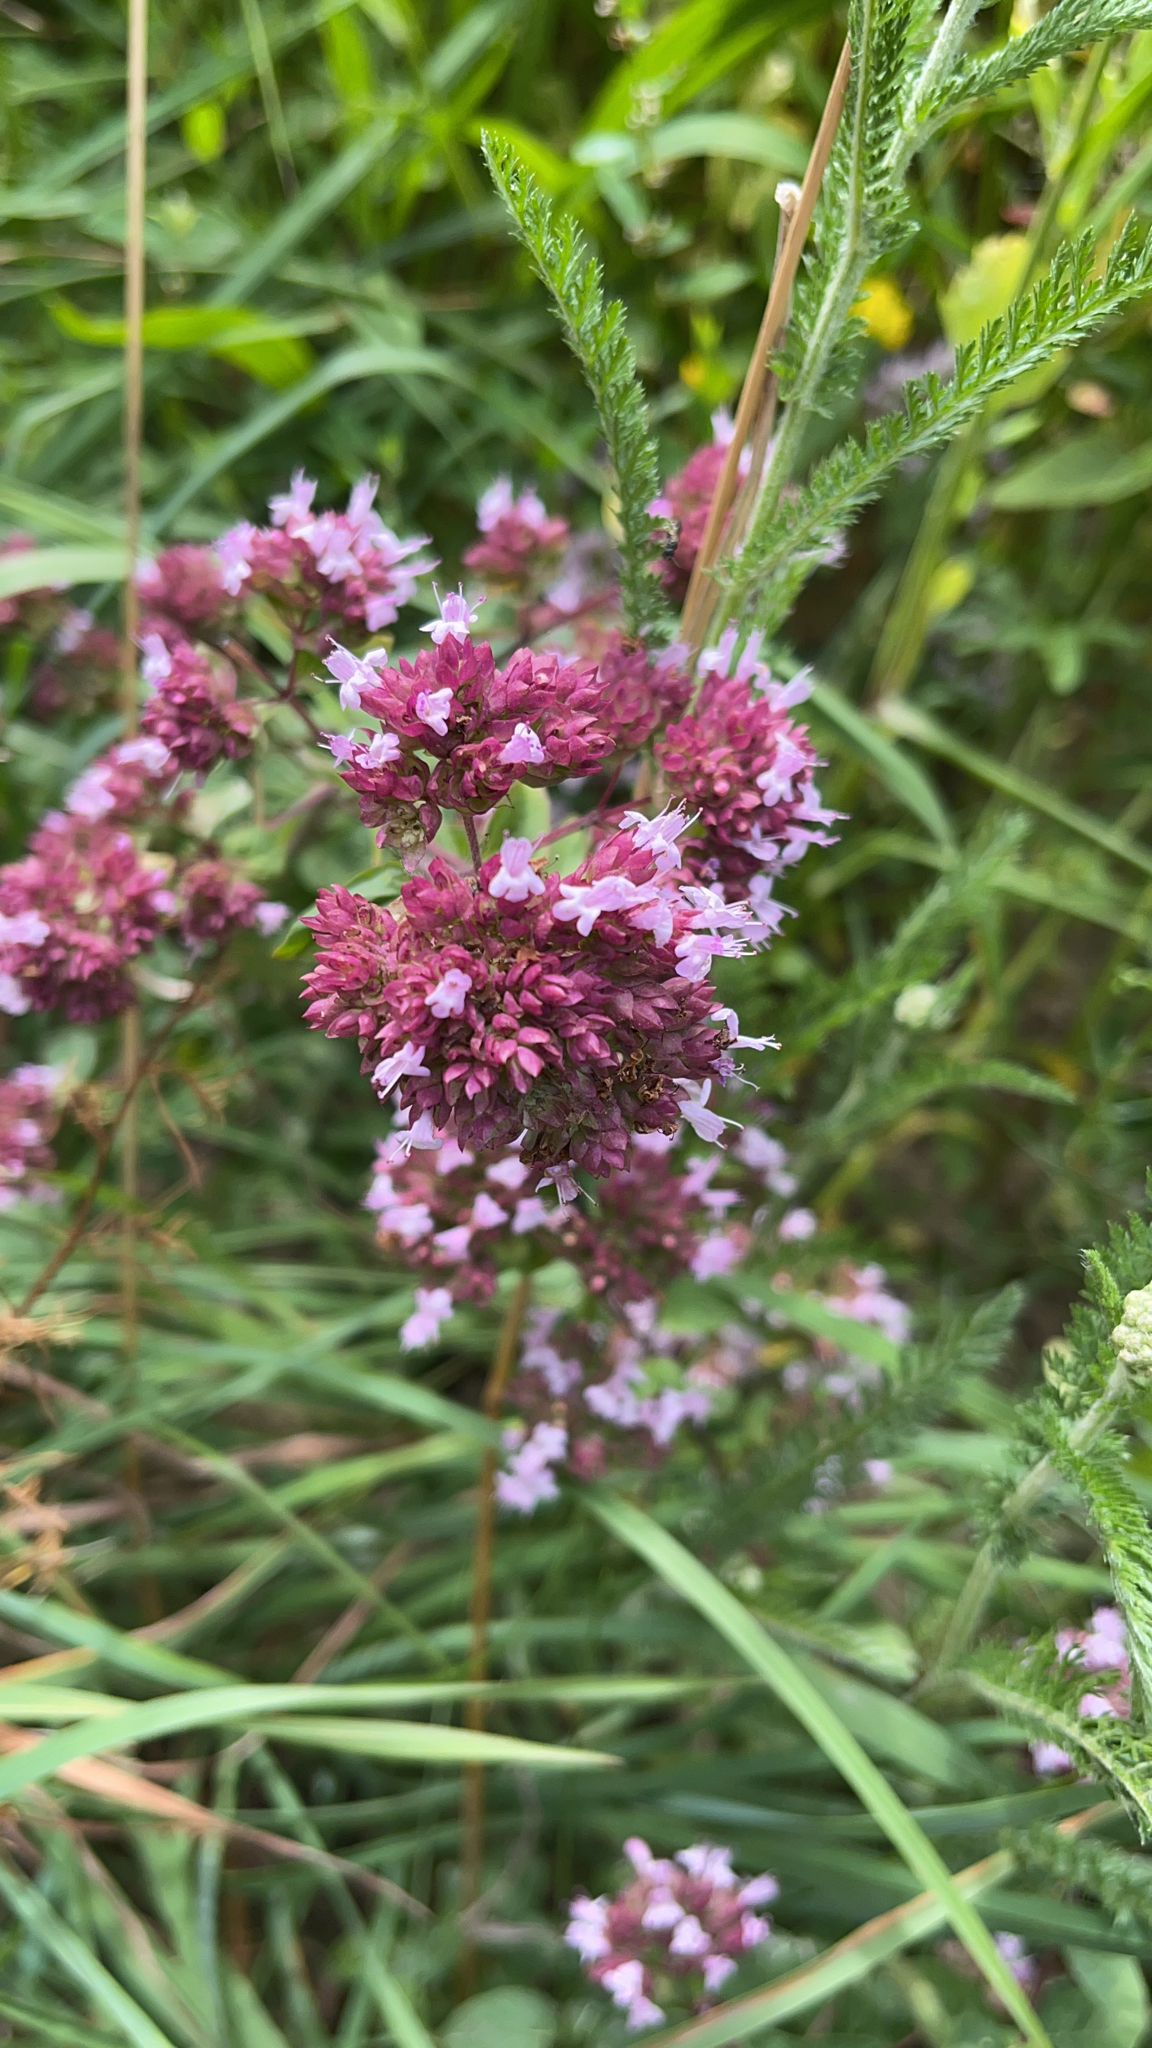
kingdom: Plantae
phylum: Tracheophyta
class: Magnoliopsida
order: Lamiales
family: Lamiaceae
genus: Origanum
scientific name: Origanum vulgare
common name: Wild marjoram
